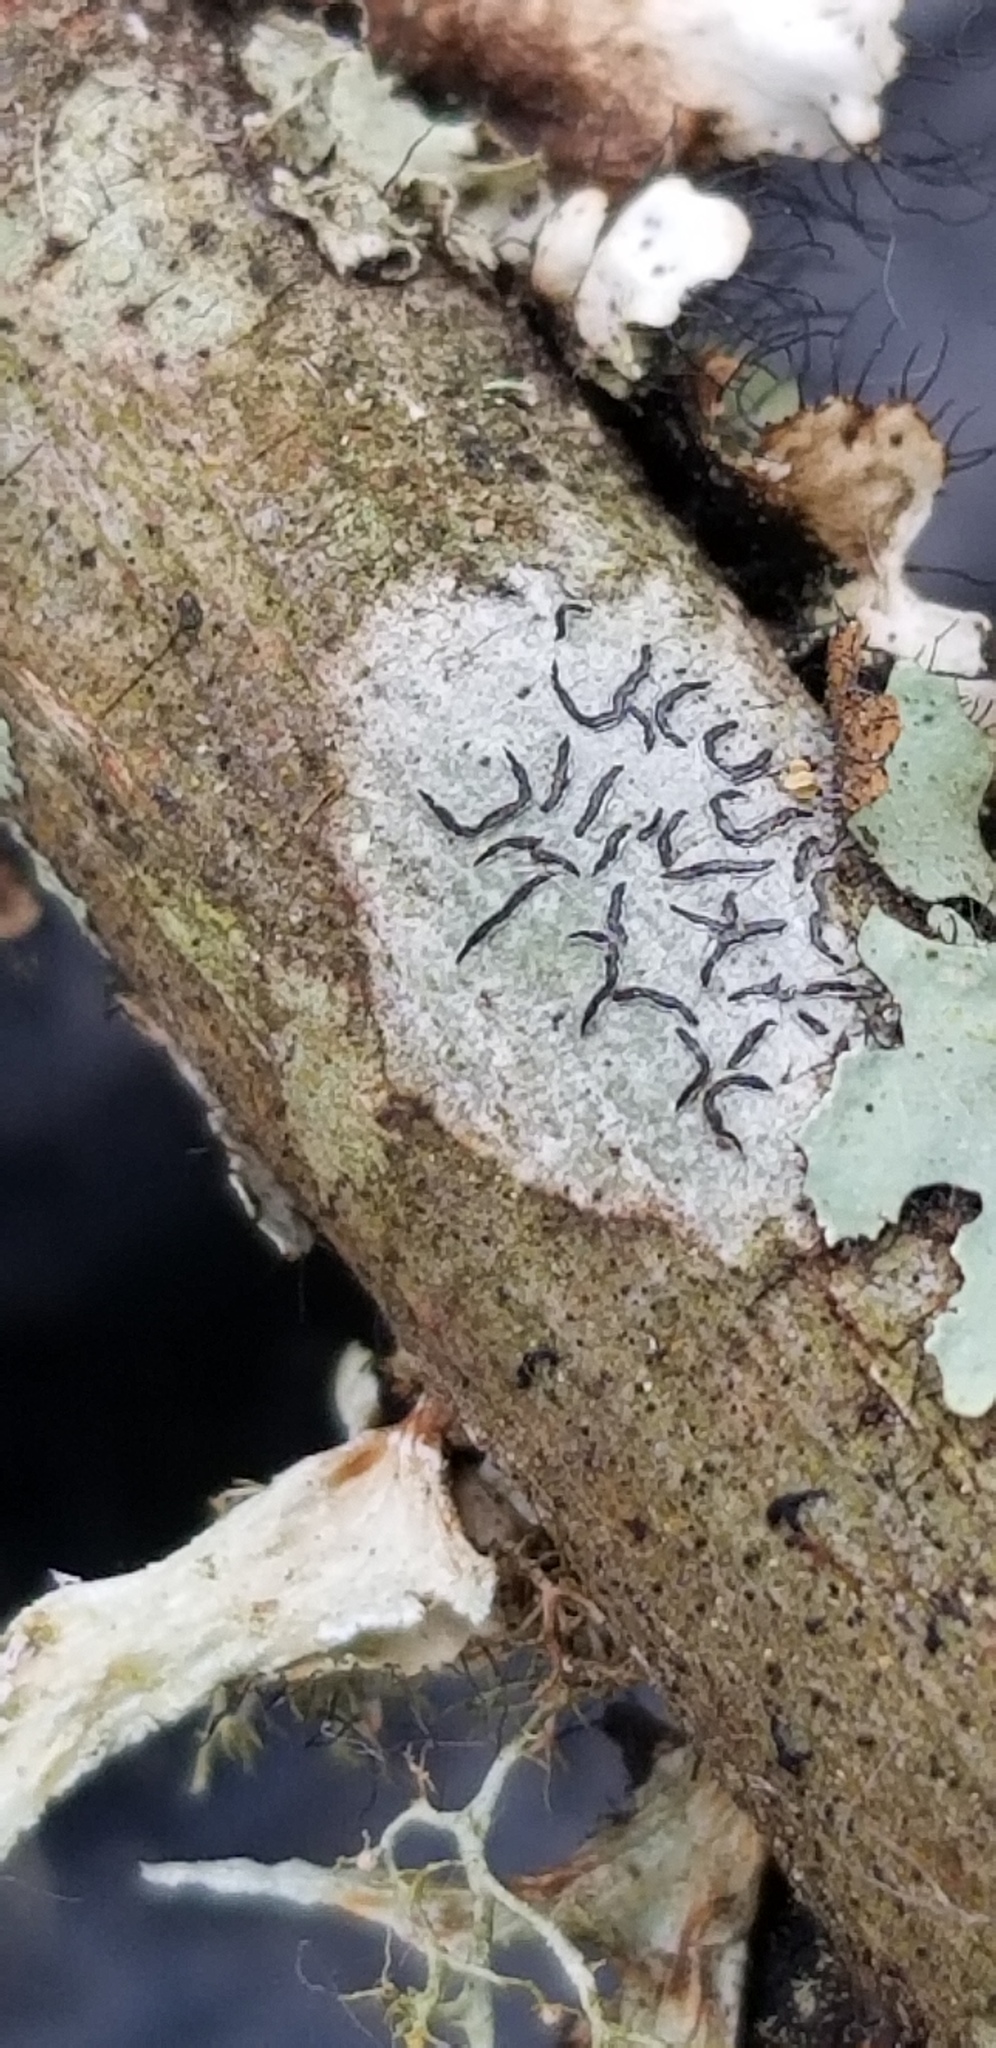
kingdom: Fungi
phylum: Ascomycota
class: Lecanoromycetes
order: Ostropales
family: Graphidaceae
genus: Graphis
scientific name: Graphis scripta
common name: Script lichen
